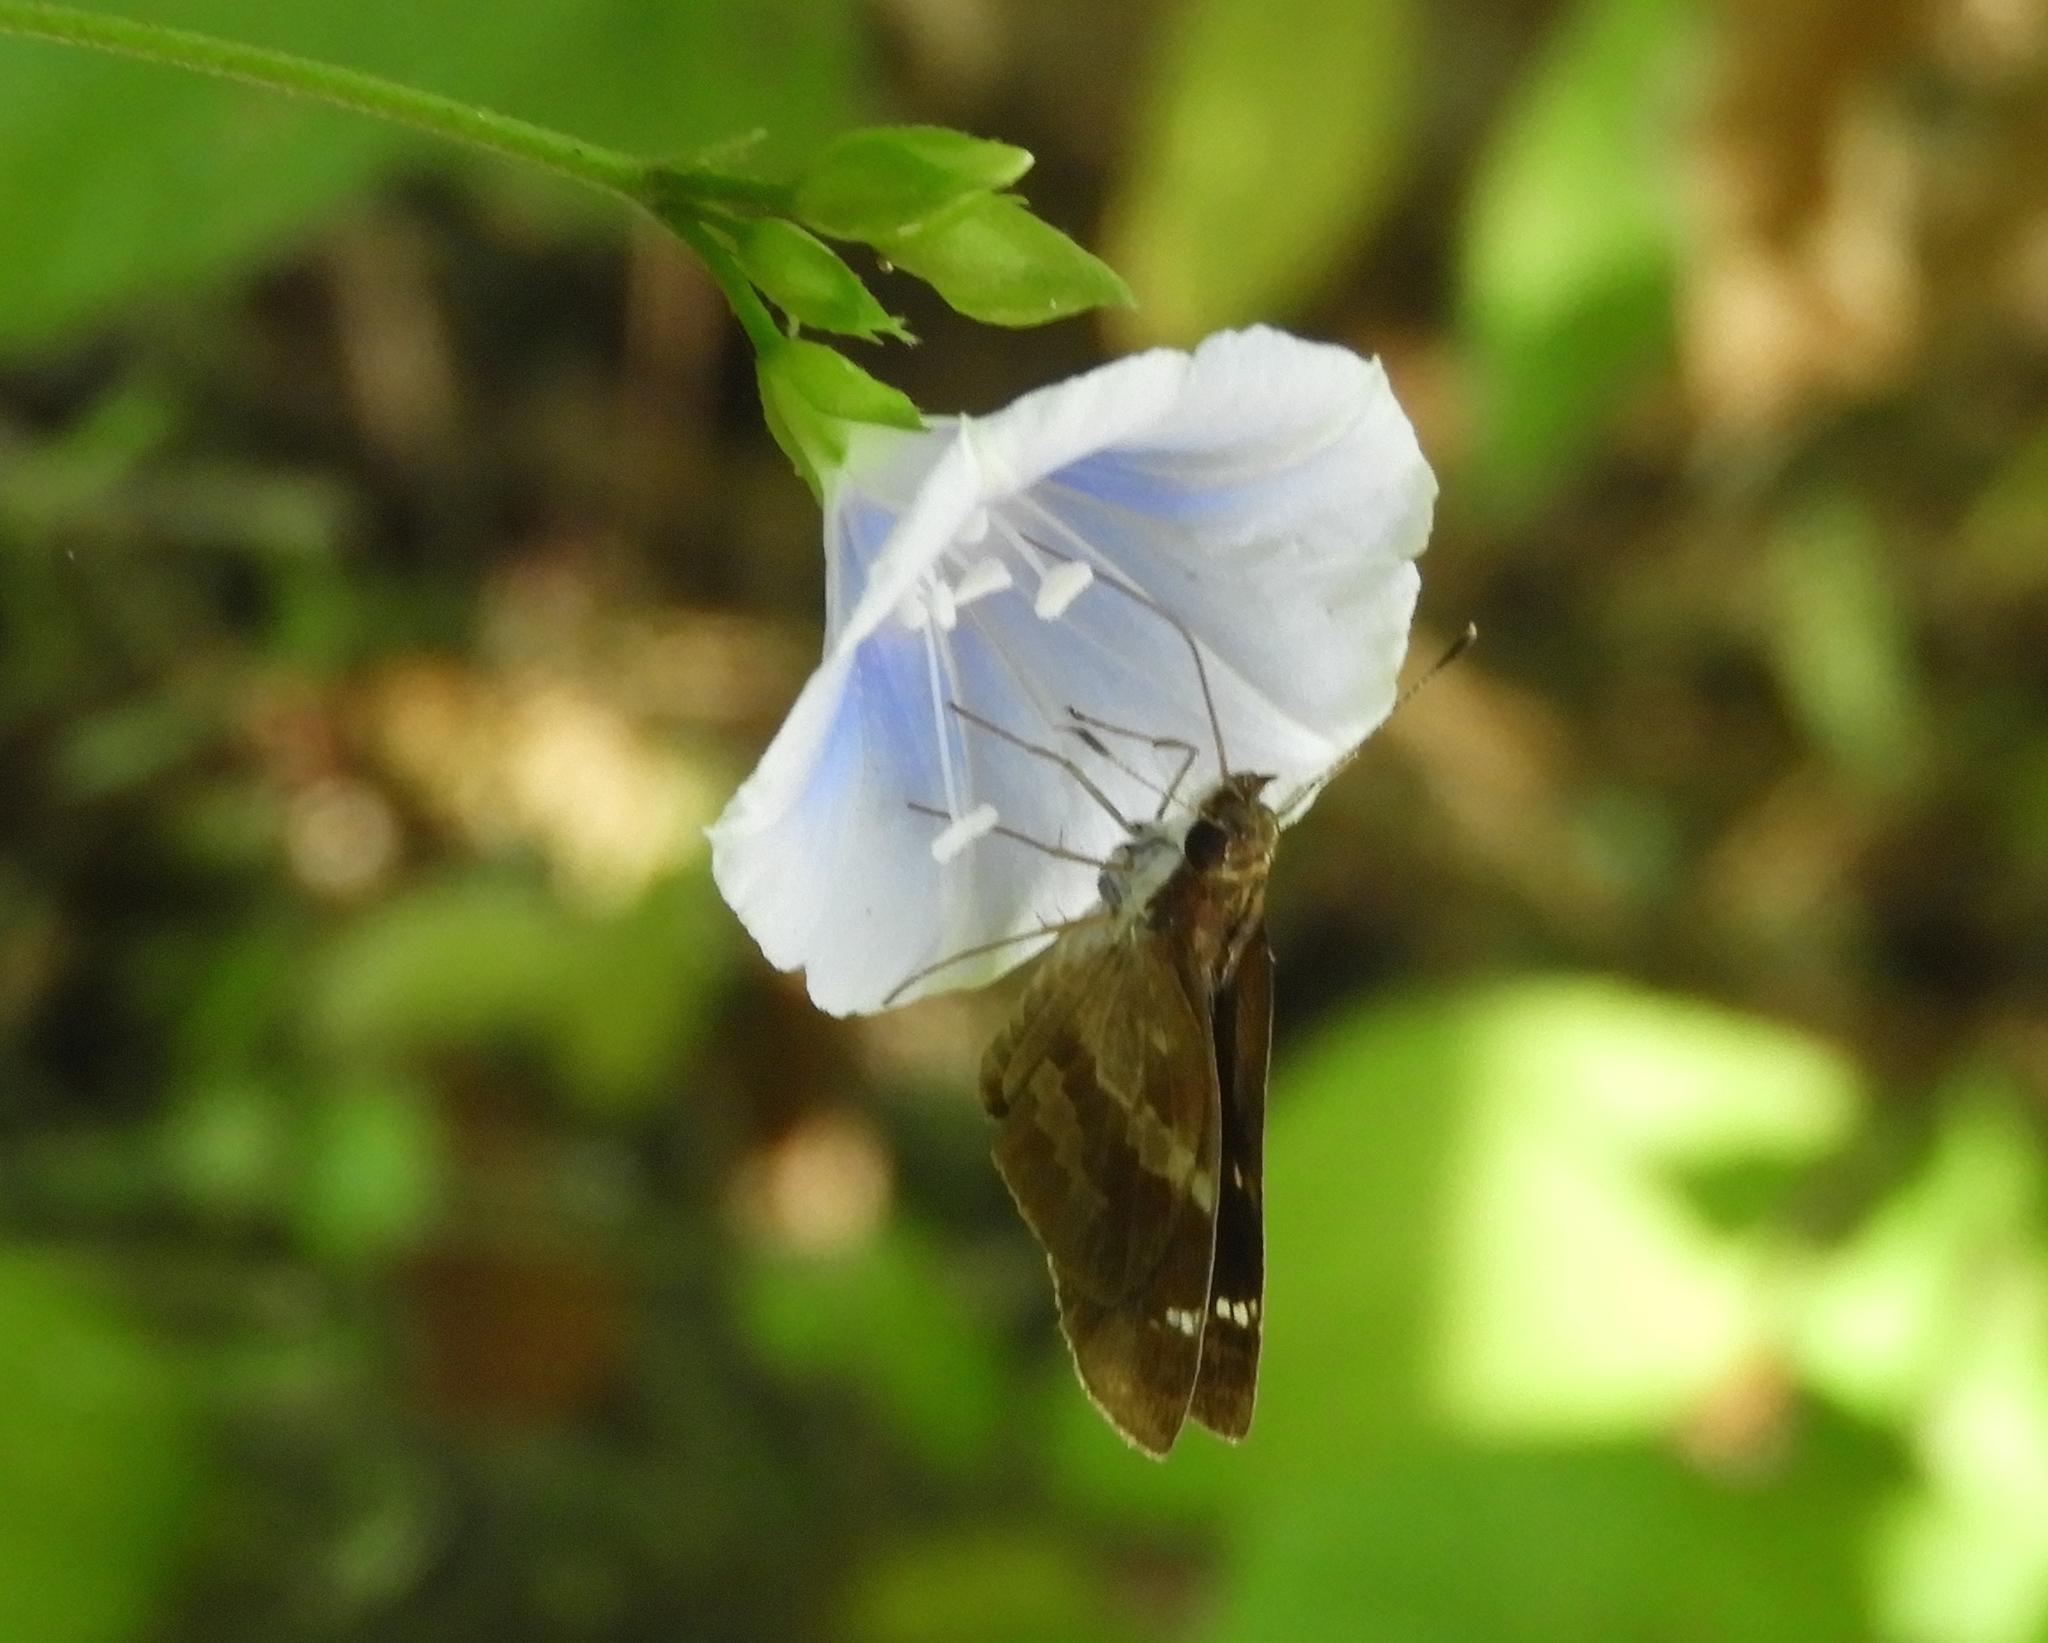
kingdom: Plantae
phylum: Tracheophyta
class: Magnoliopsida
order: Solanales
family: Convolvulaceae
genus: Jacquemontia
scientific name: Jacquemontia pringlei
